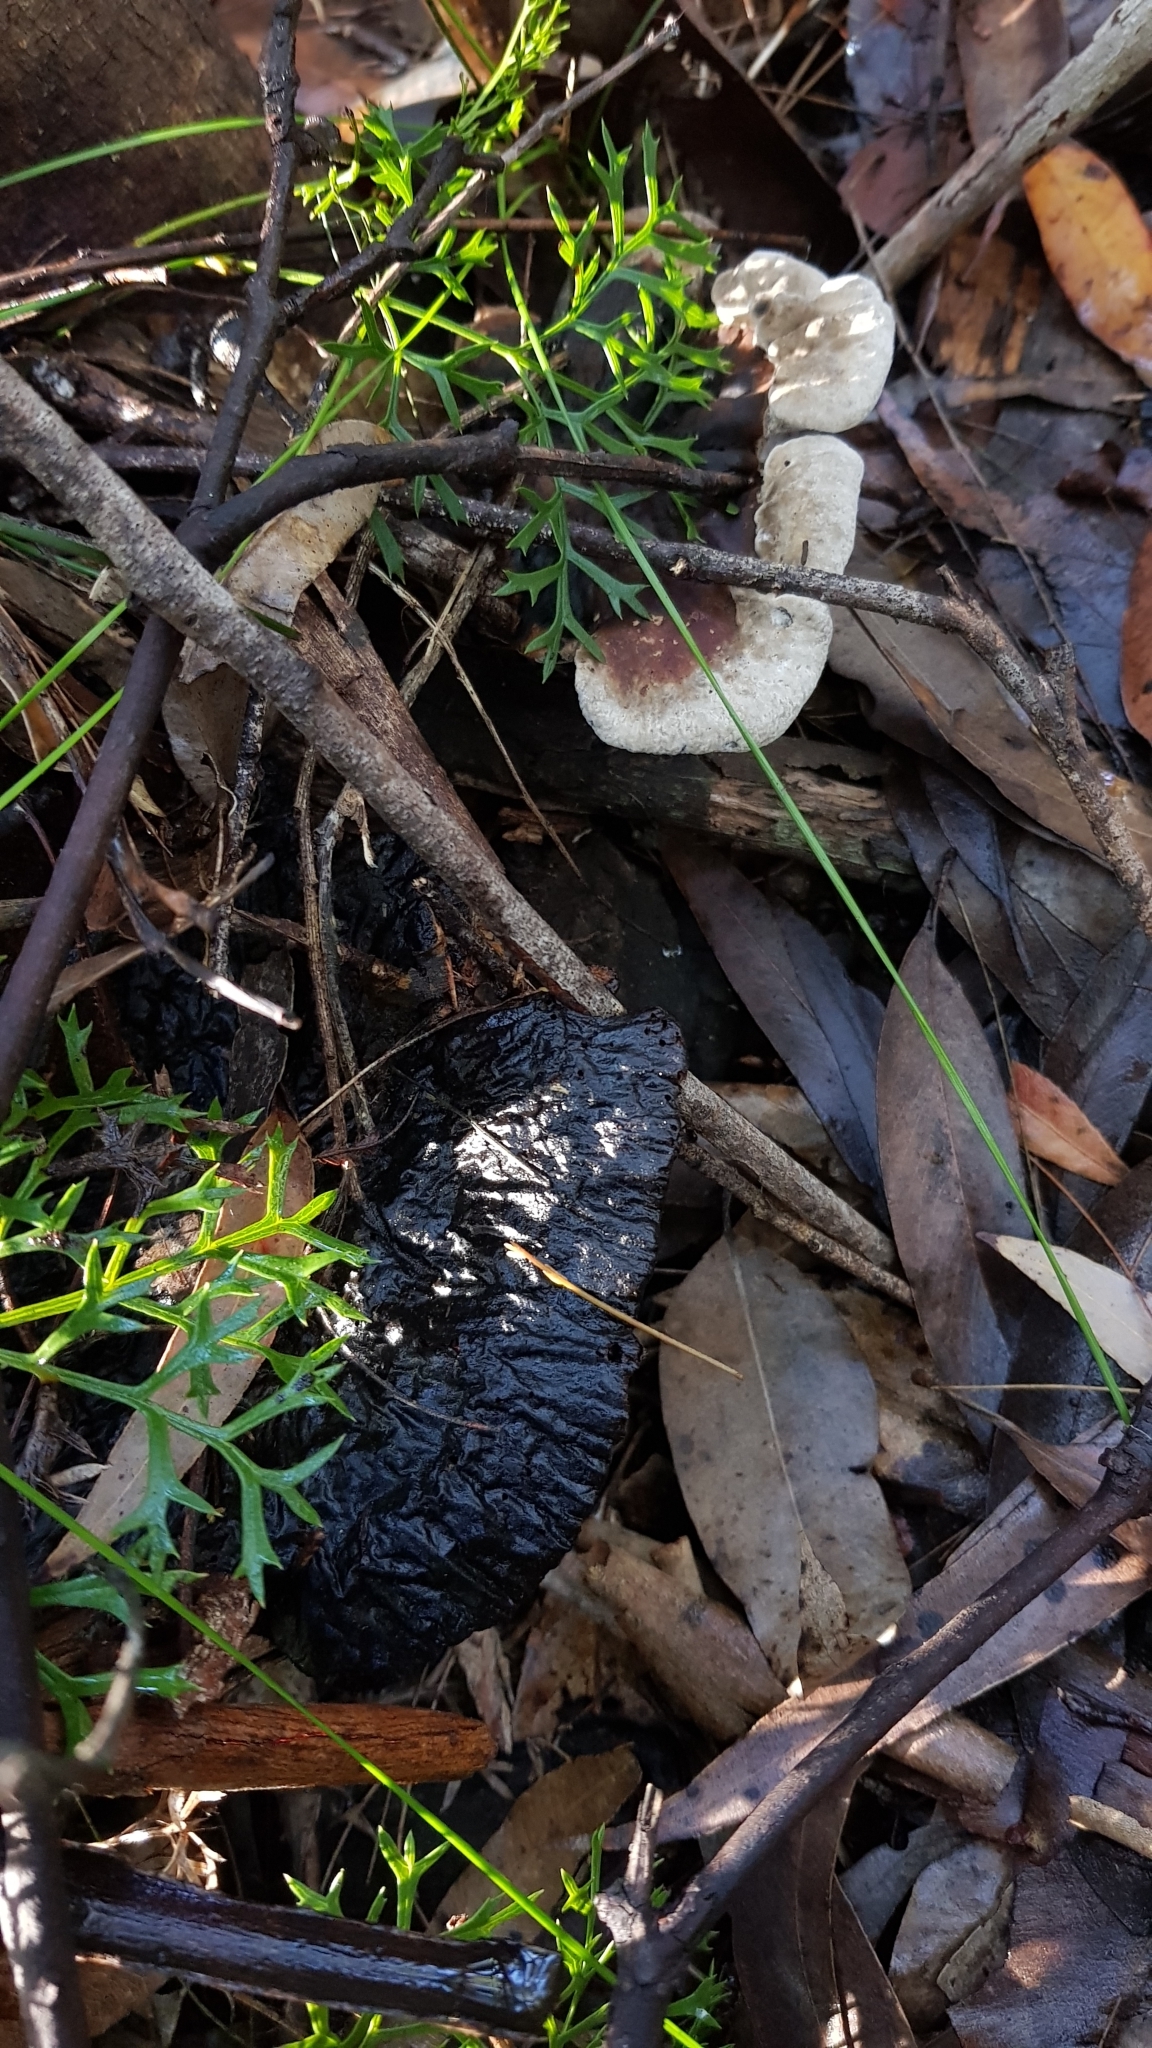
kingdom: Fungi
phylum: Basidiomycota
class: Agaricomycetes
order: Polyporales
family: Ganodermataceae
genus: Sanguinoderma
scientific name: Sanguinoderma rude
